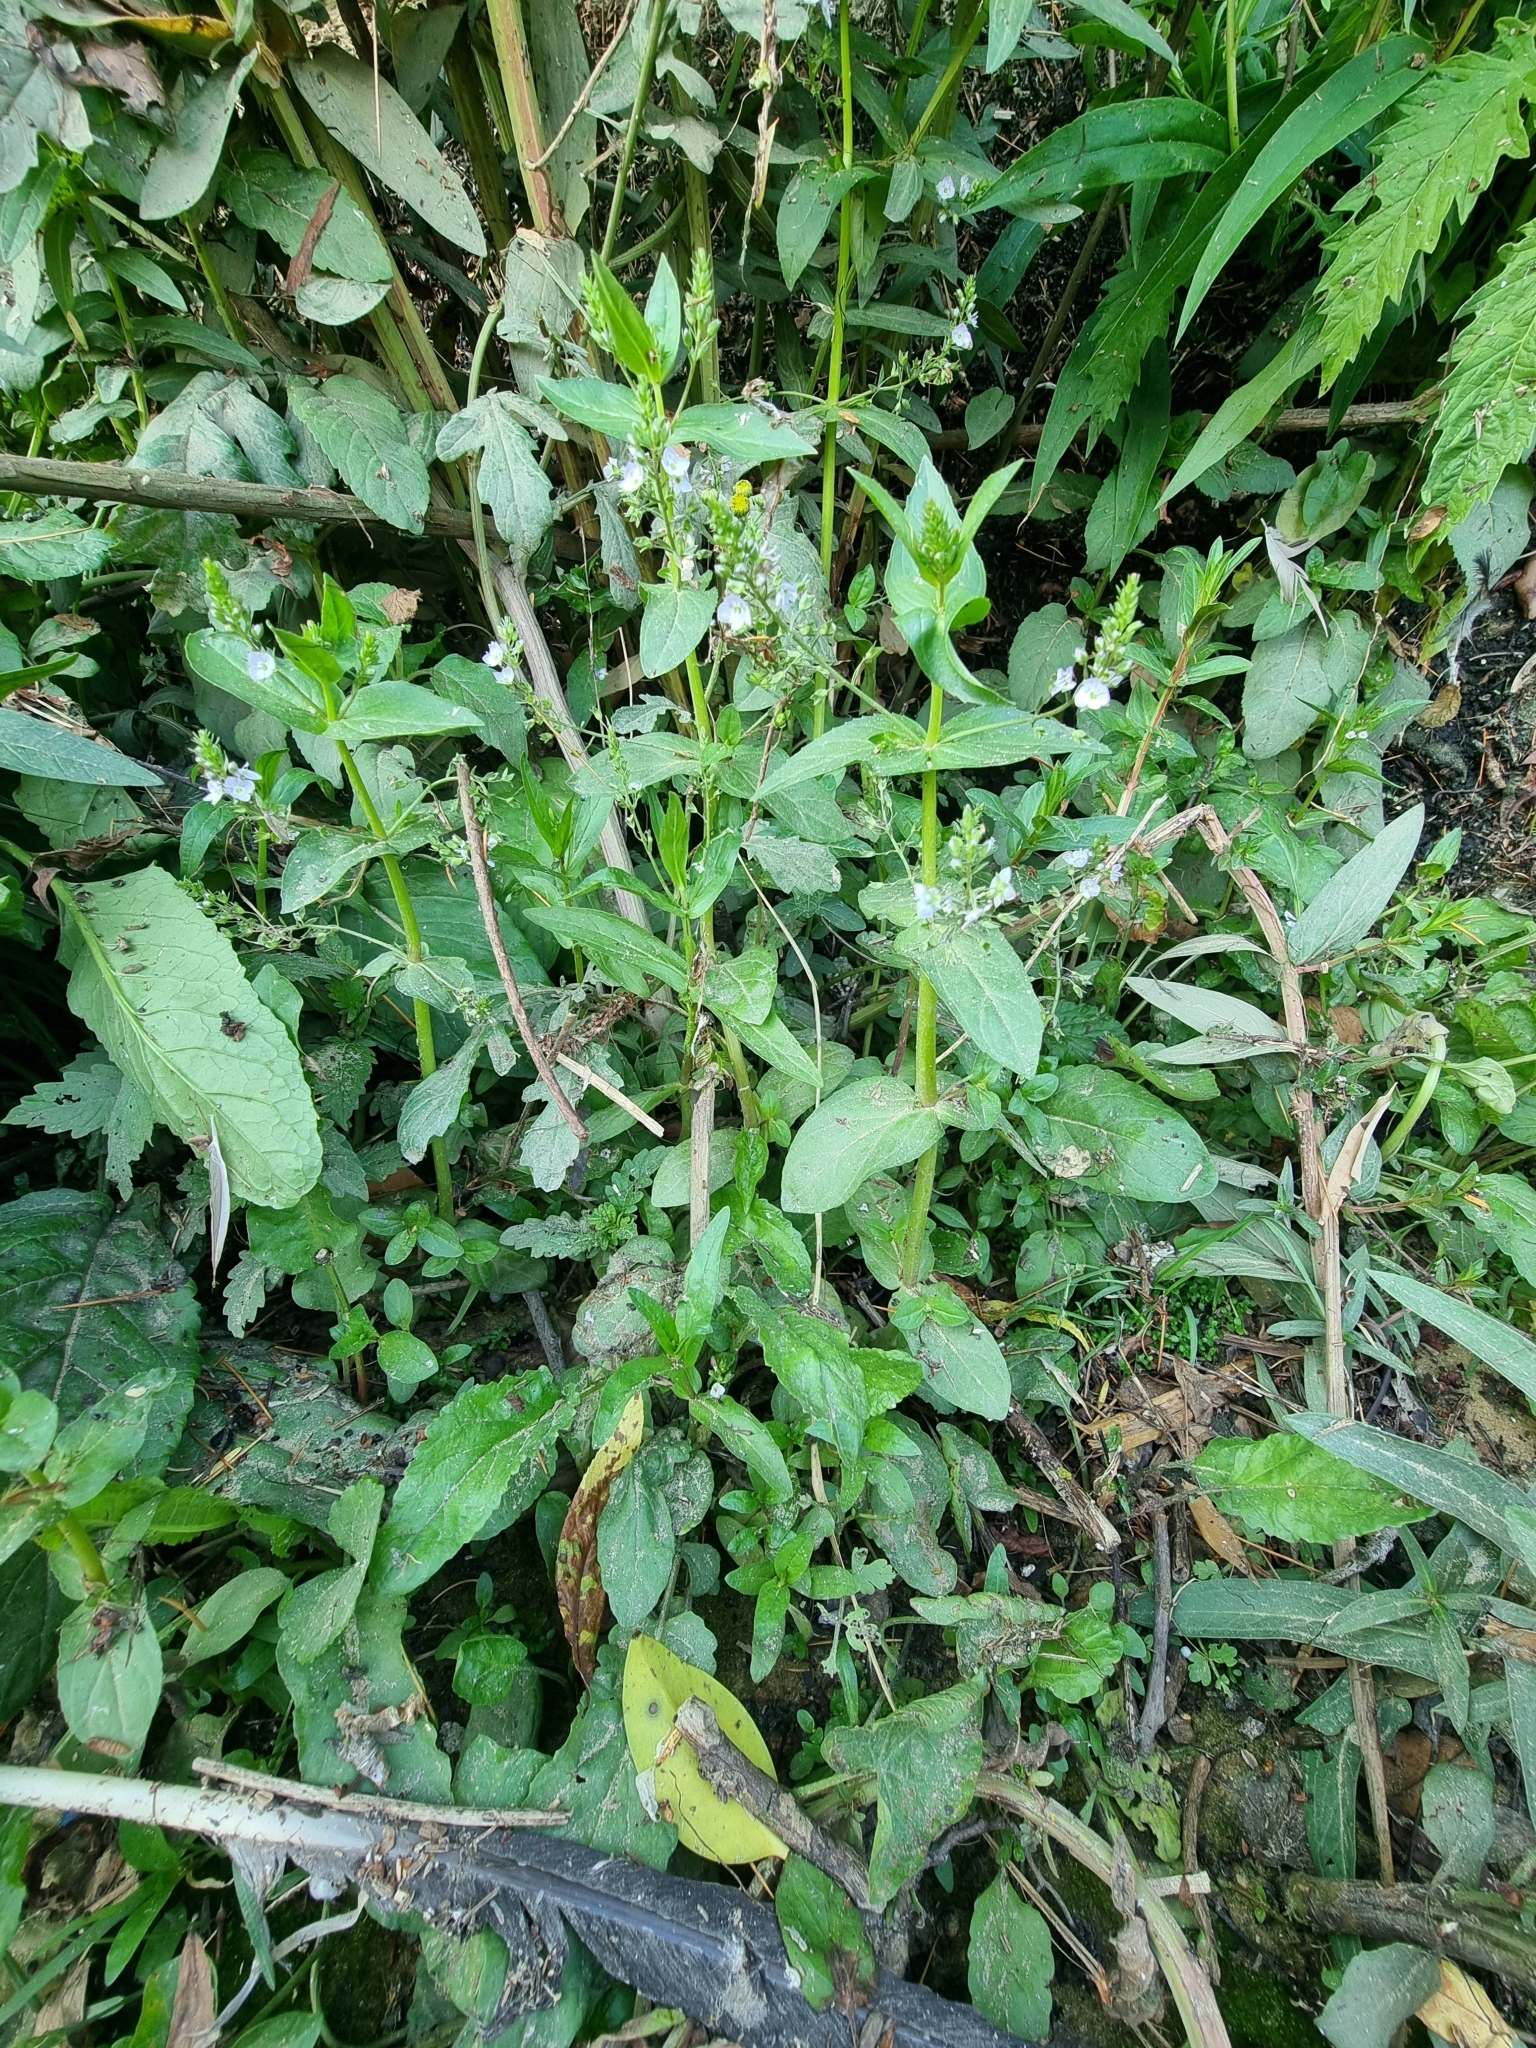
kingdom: Plantae
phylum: Tracheophyta
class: Magnoliopsida
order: Lamiales
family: Plantaginaceae
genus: Veronica
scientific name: Veronica anagallis-aquatica
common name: Water speedwell
